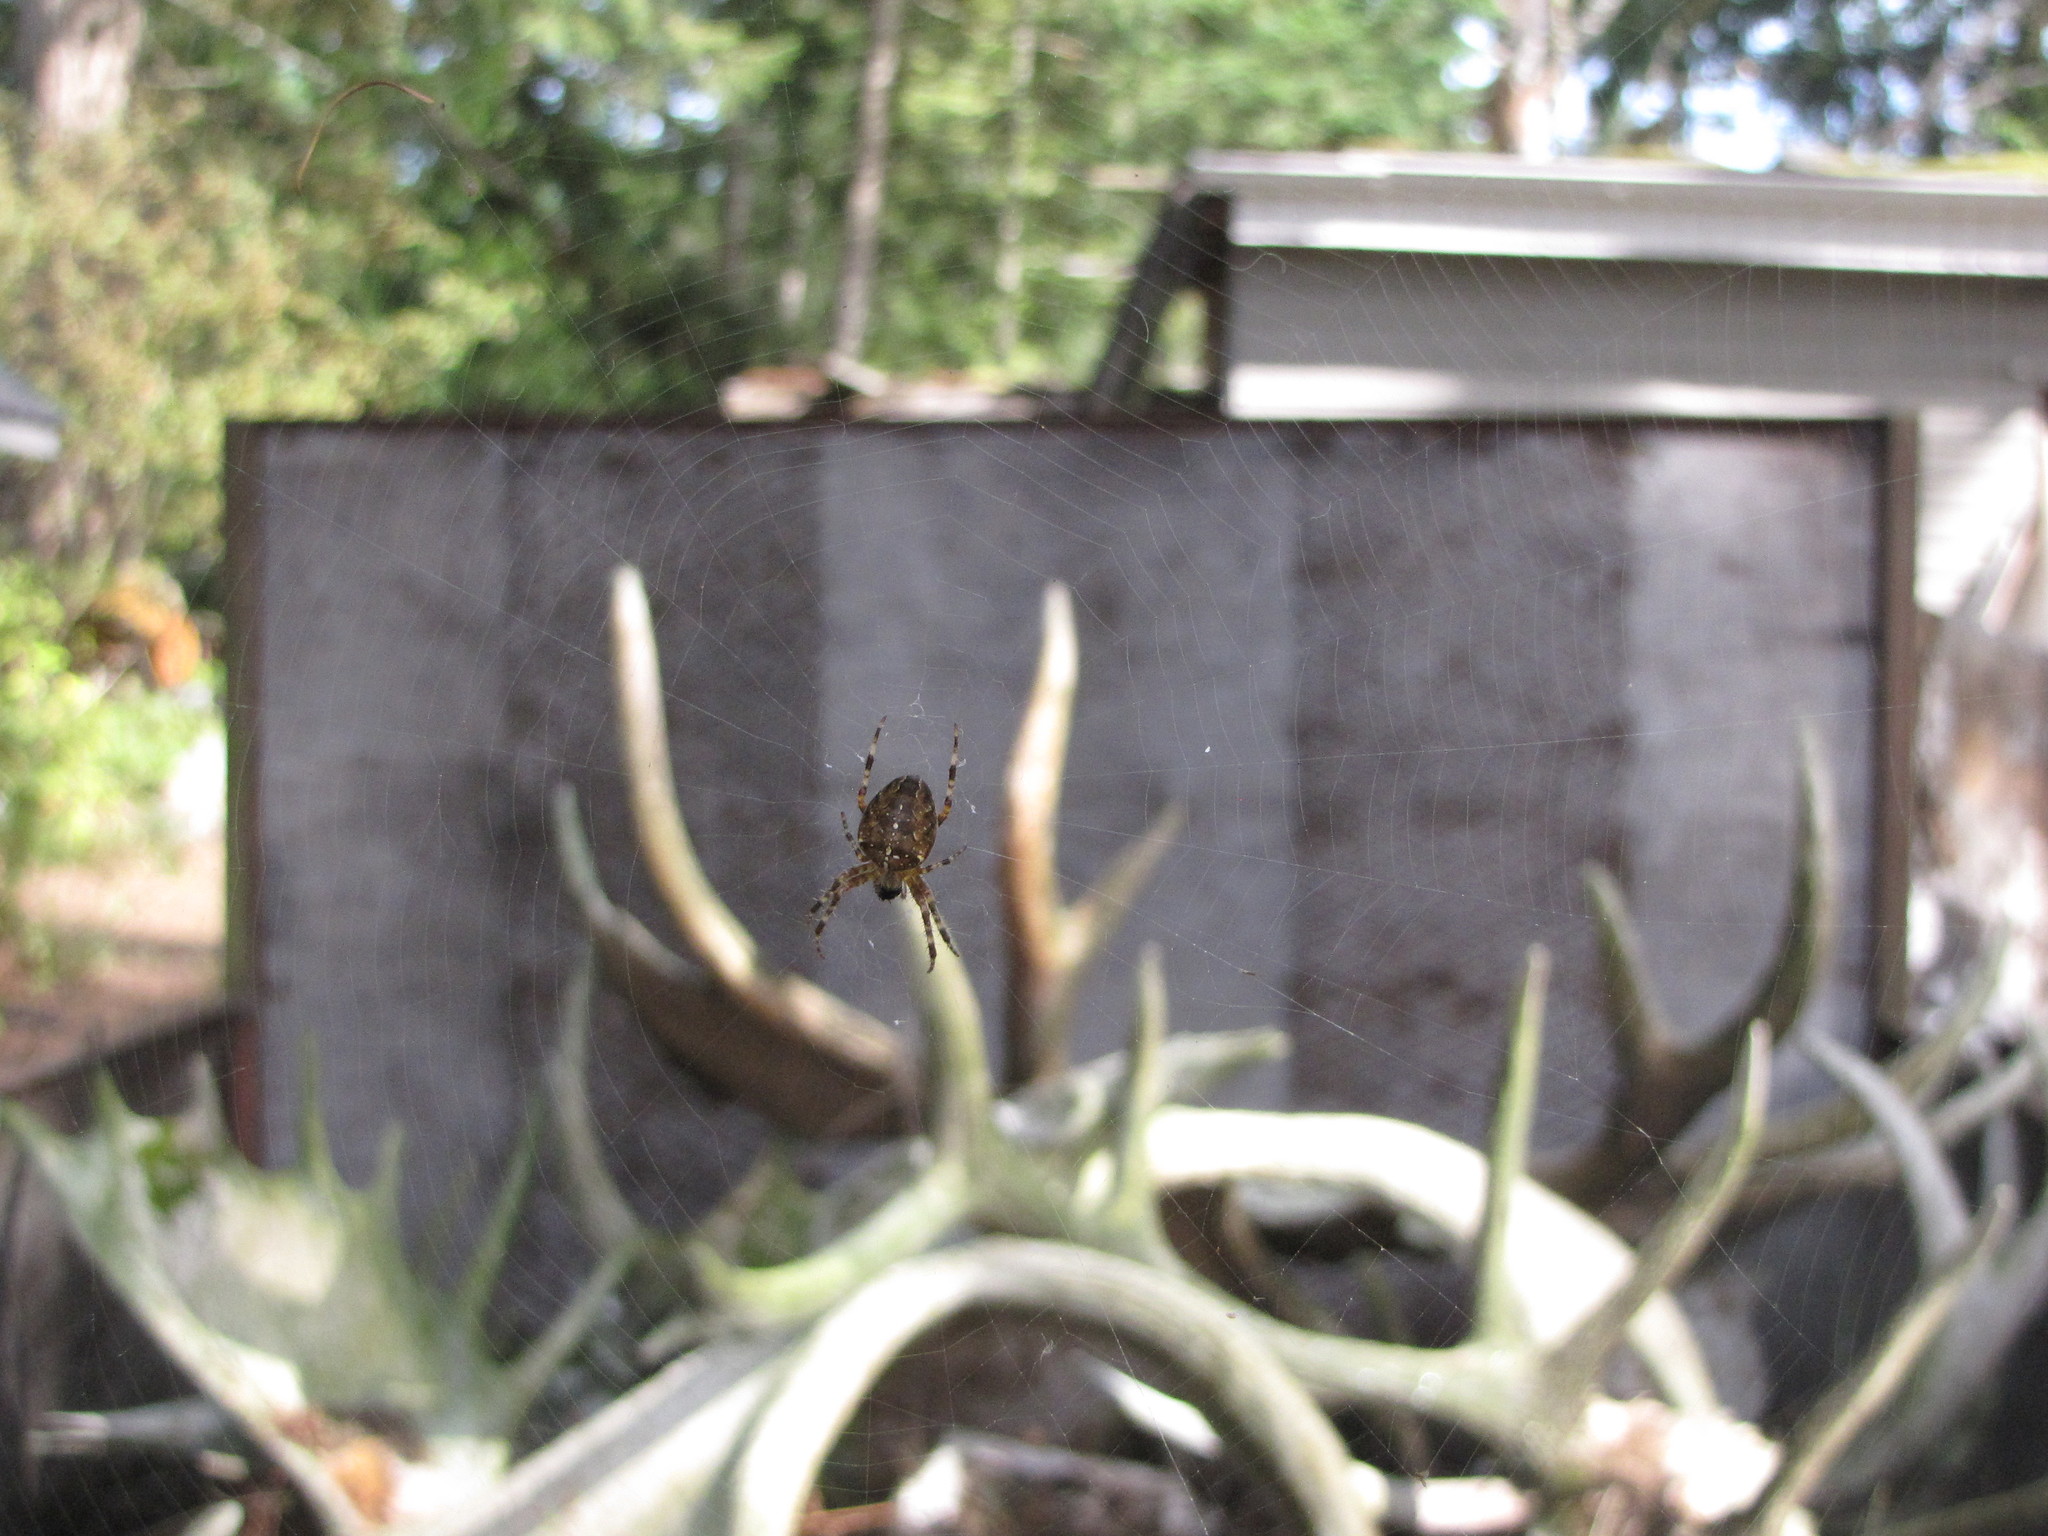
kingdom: Animalia
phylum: Arthropoda
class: Arachnida
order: Araneae
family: Araneidae
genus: Araneus
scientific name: Araneus diadematus
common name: Cross orbweaver
